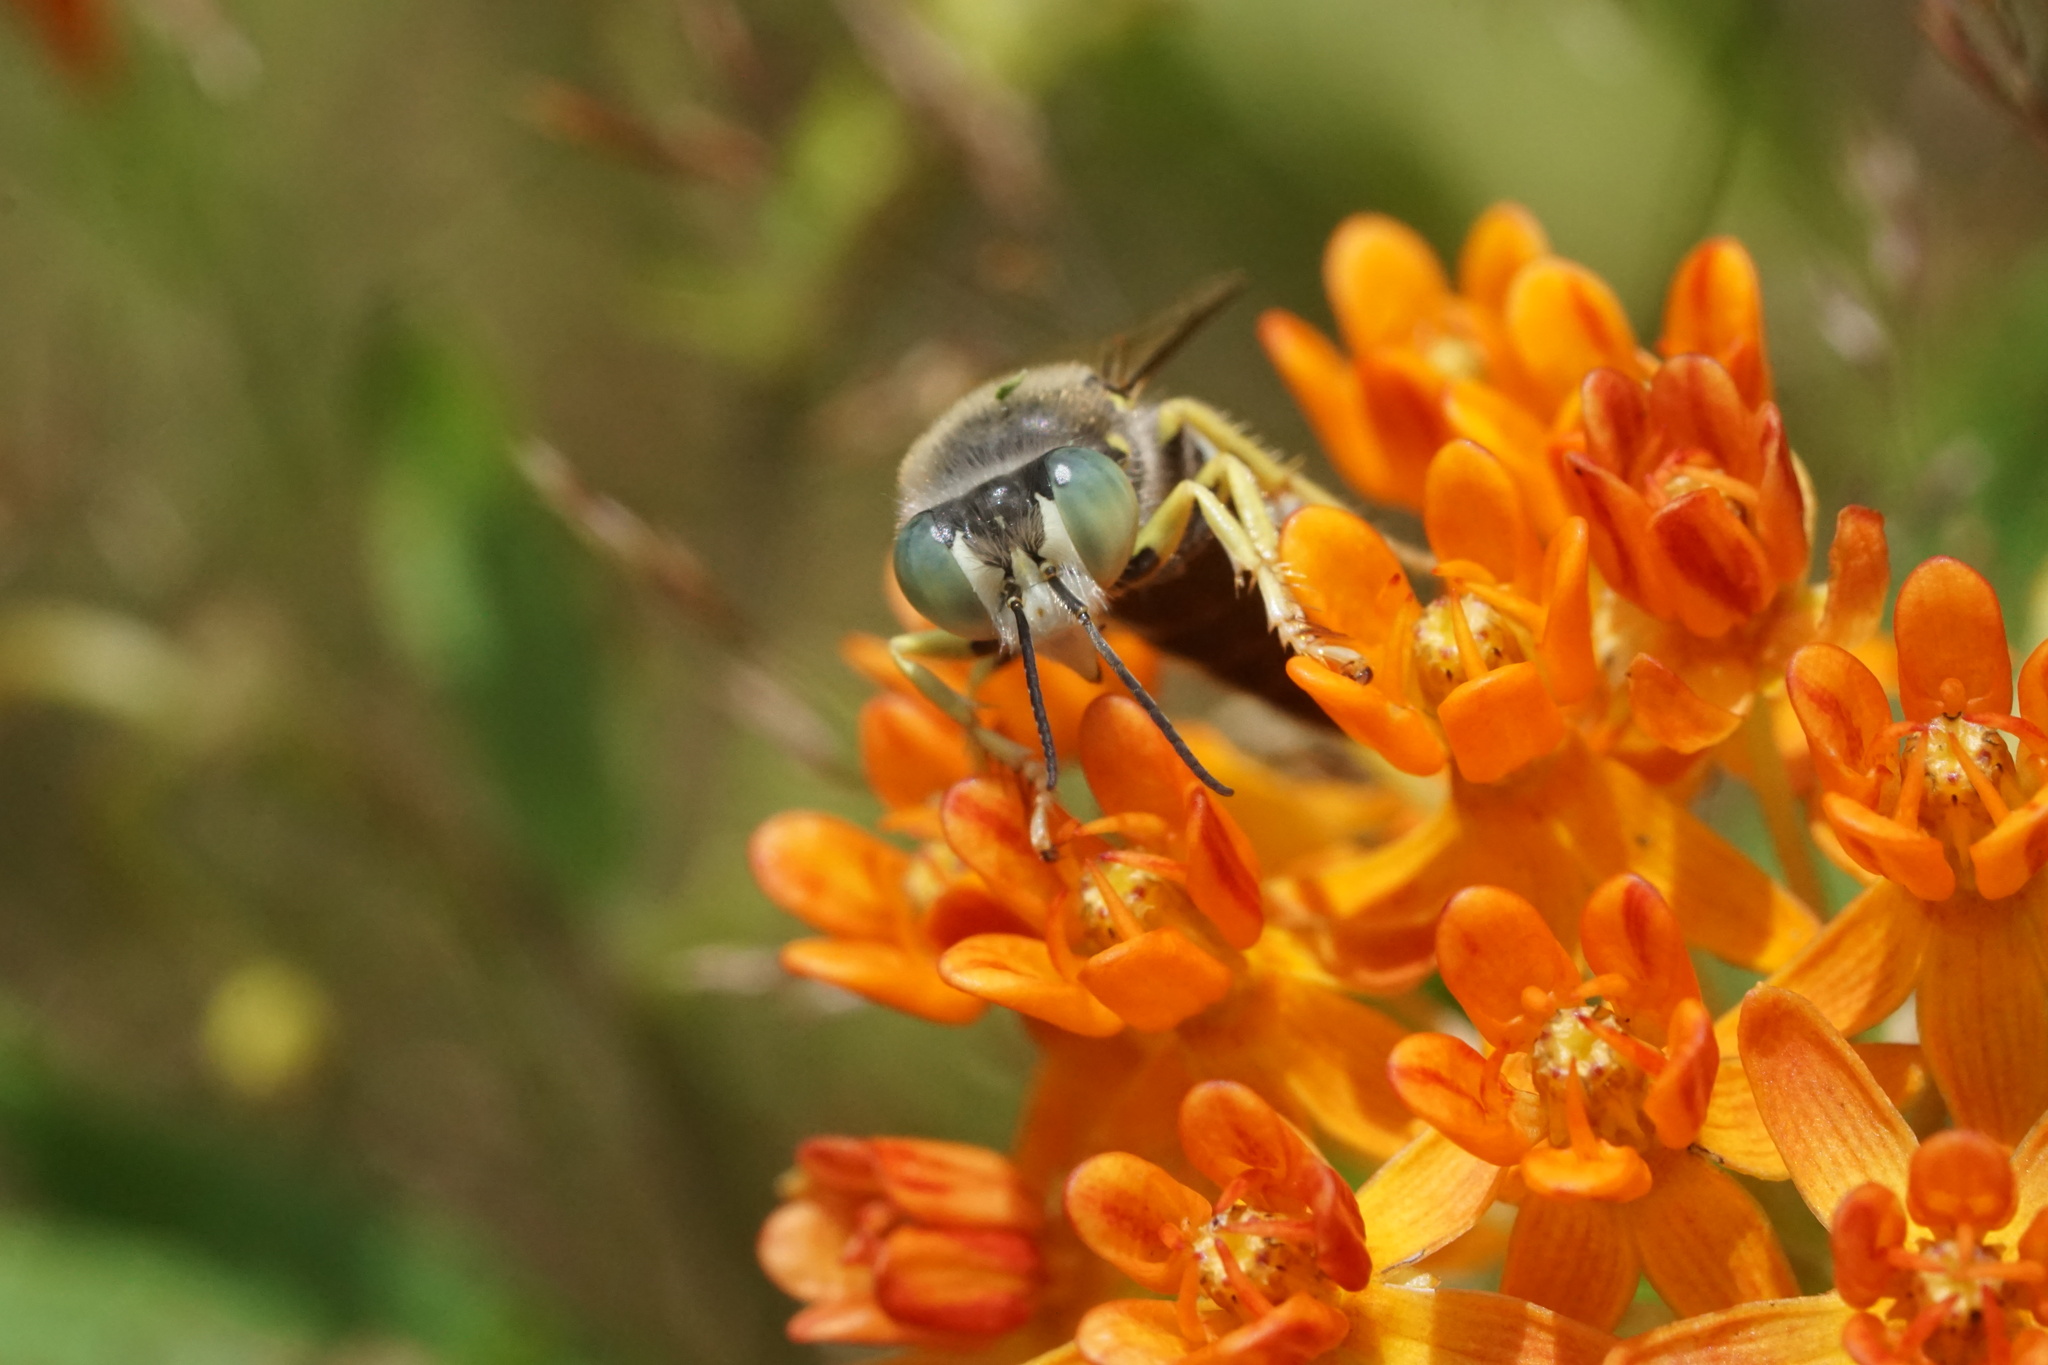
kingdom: Animalia
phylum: Arthropoda
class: Insecta
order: Hymenoptera
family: Crabronidae
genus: Bembix
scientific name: Bembix americana
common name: American sand wasp
